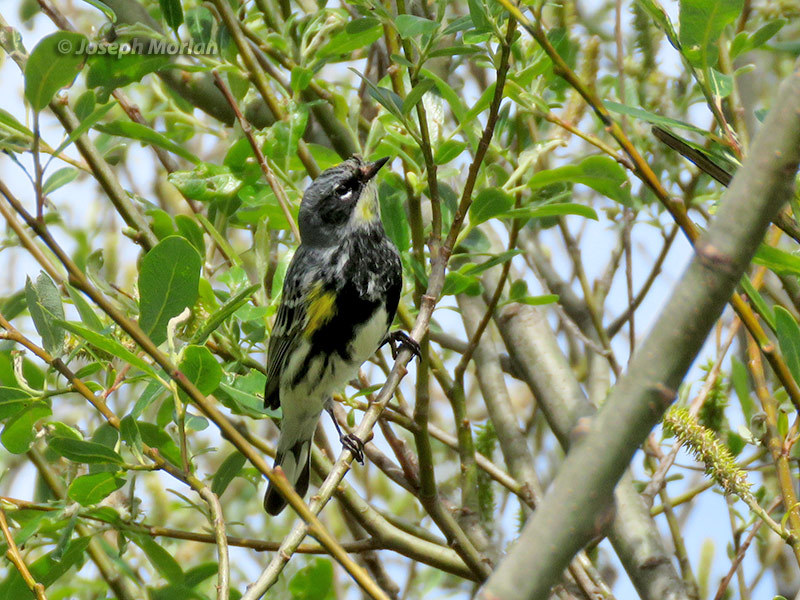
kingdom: Animalia
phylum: Chordata
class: Aves
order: Passeriformes
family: Parulidae
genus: Setophaga
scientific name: Setophaga coronata
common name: Myrtle warbler
